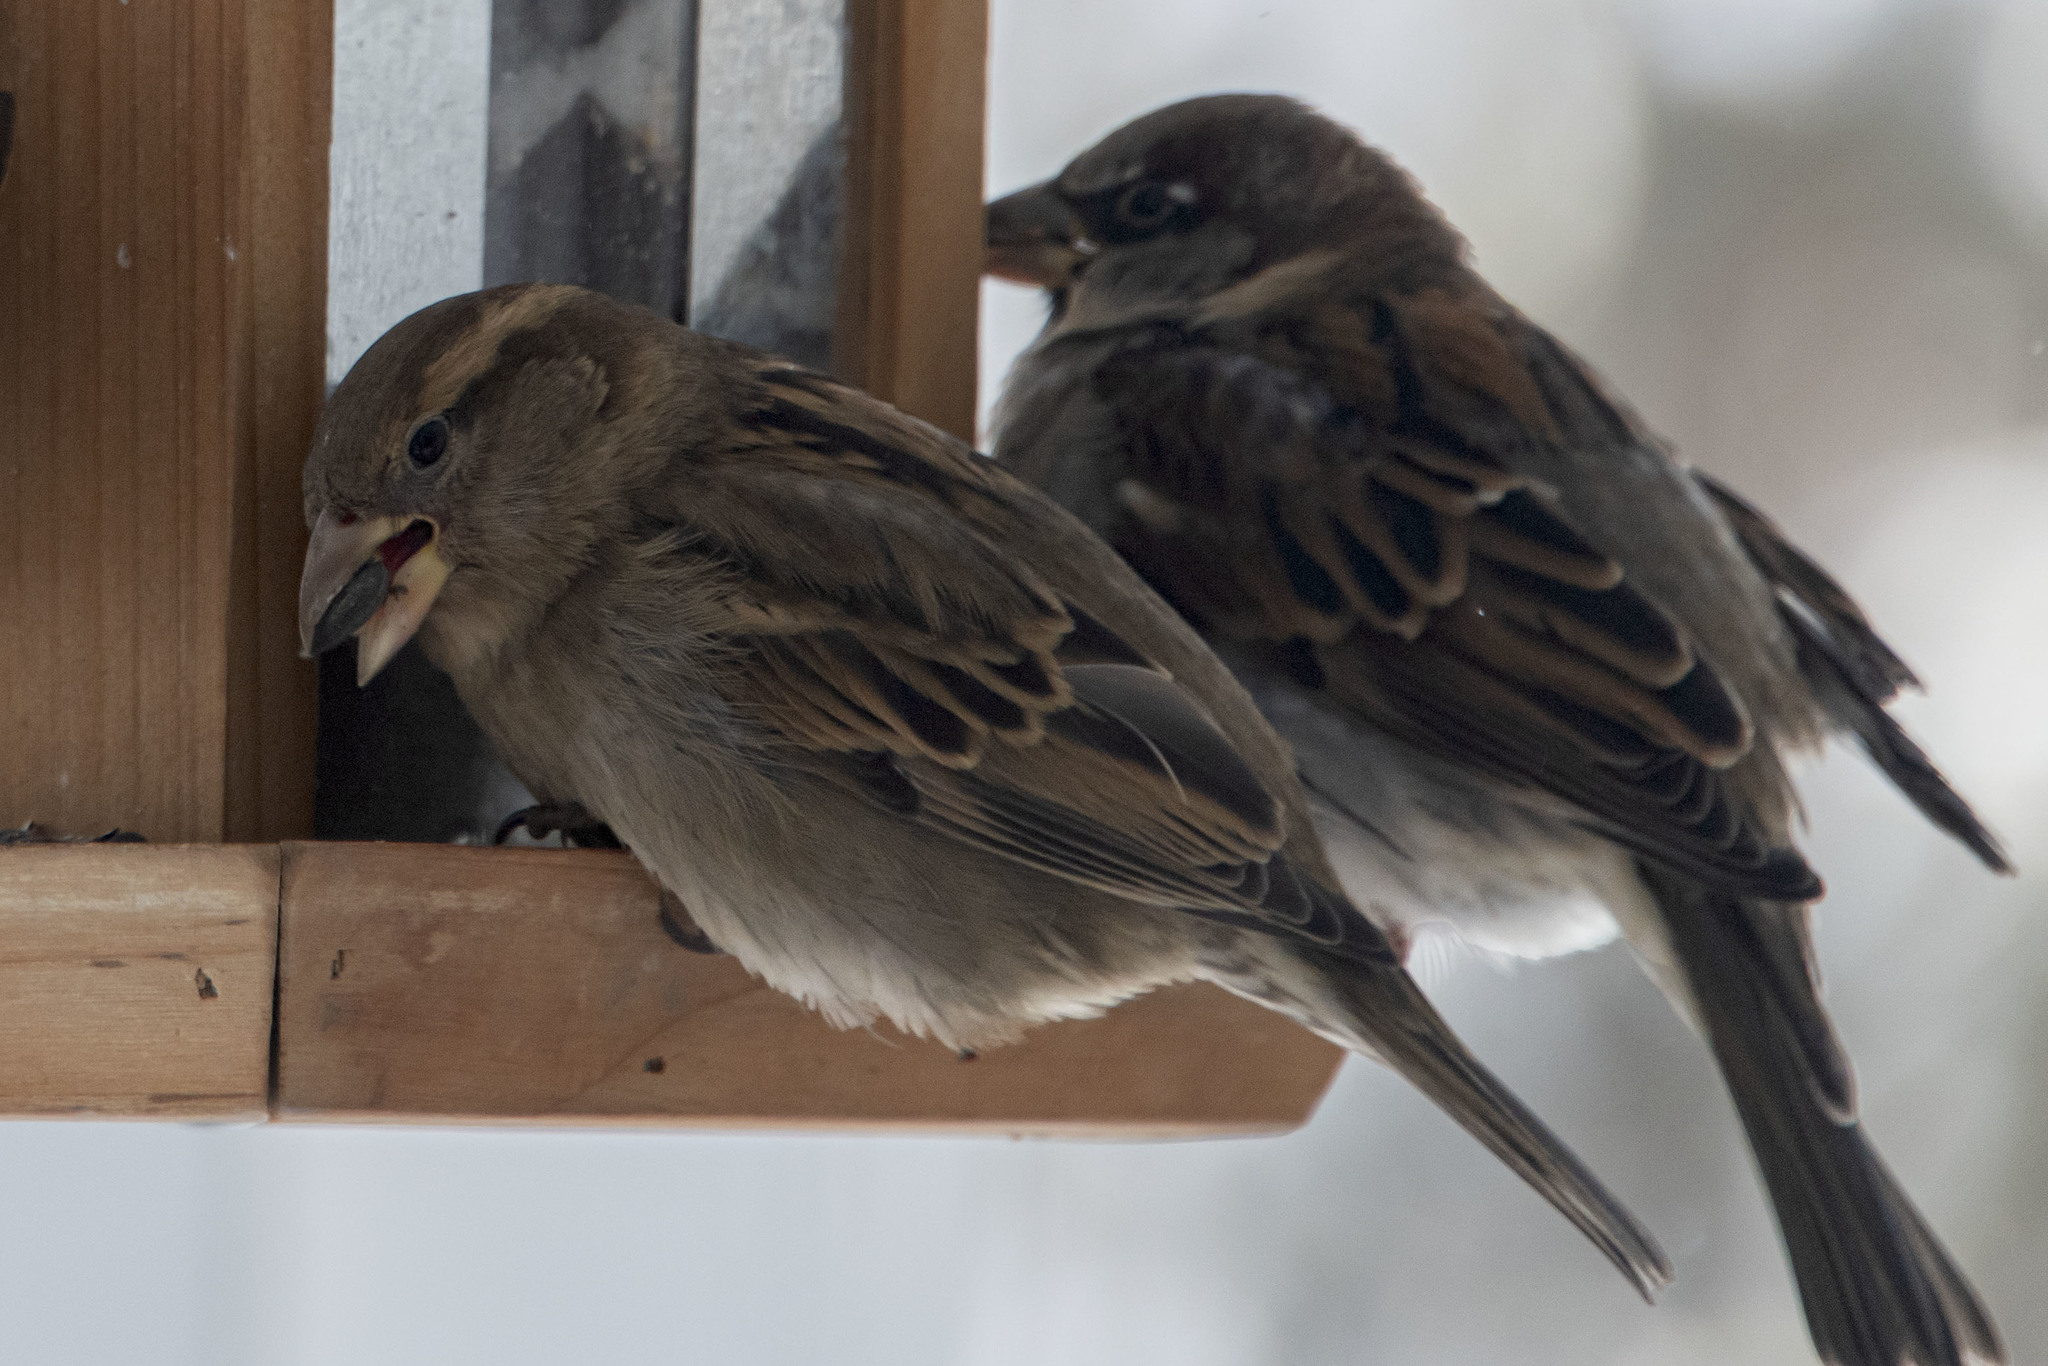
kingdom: Animalia
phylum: Chordata
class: Aves
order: Passeriformes
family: Passeridae
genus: Passer
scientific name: Passer domesticus
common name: House sparrow
